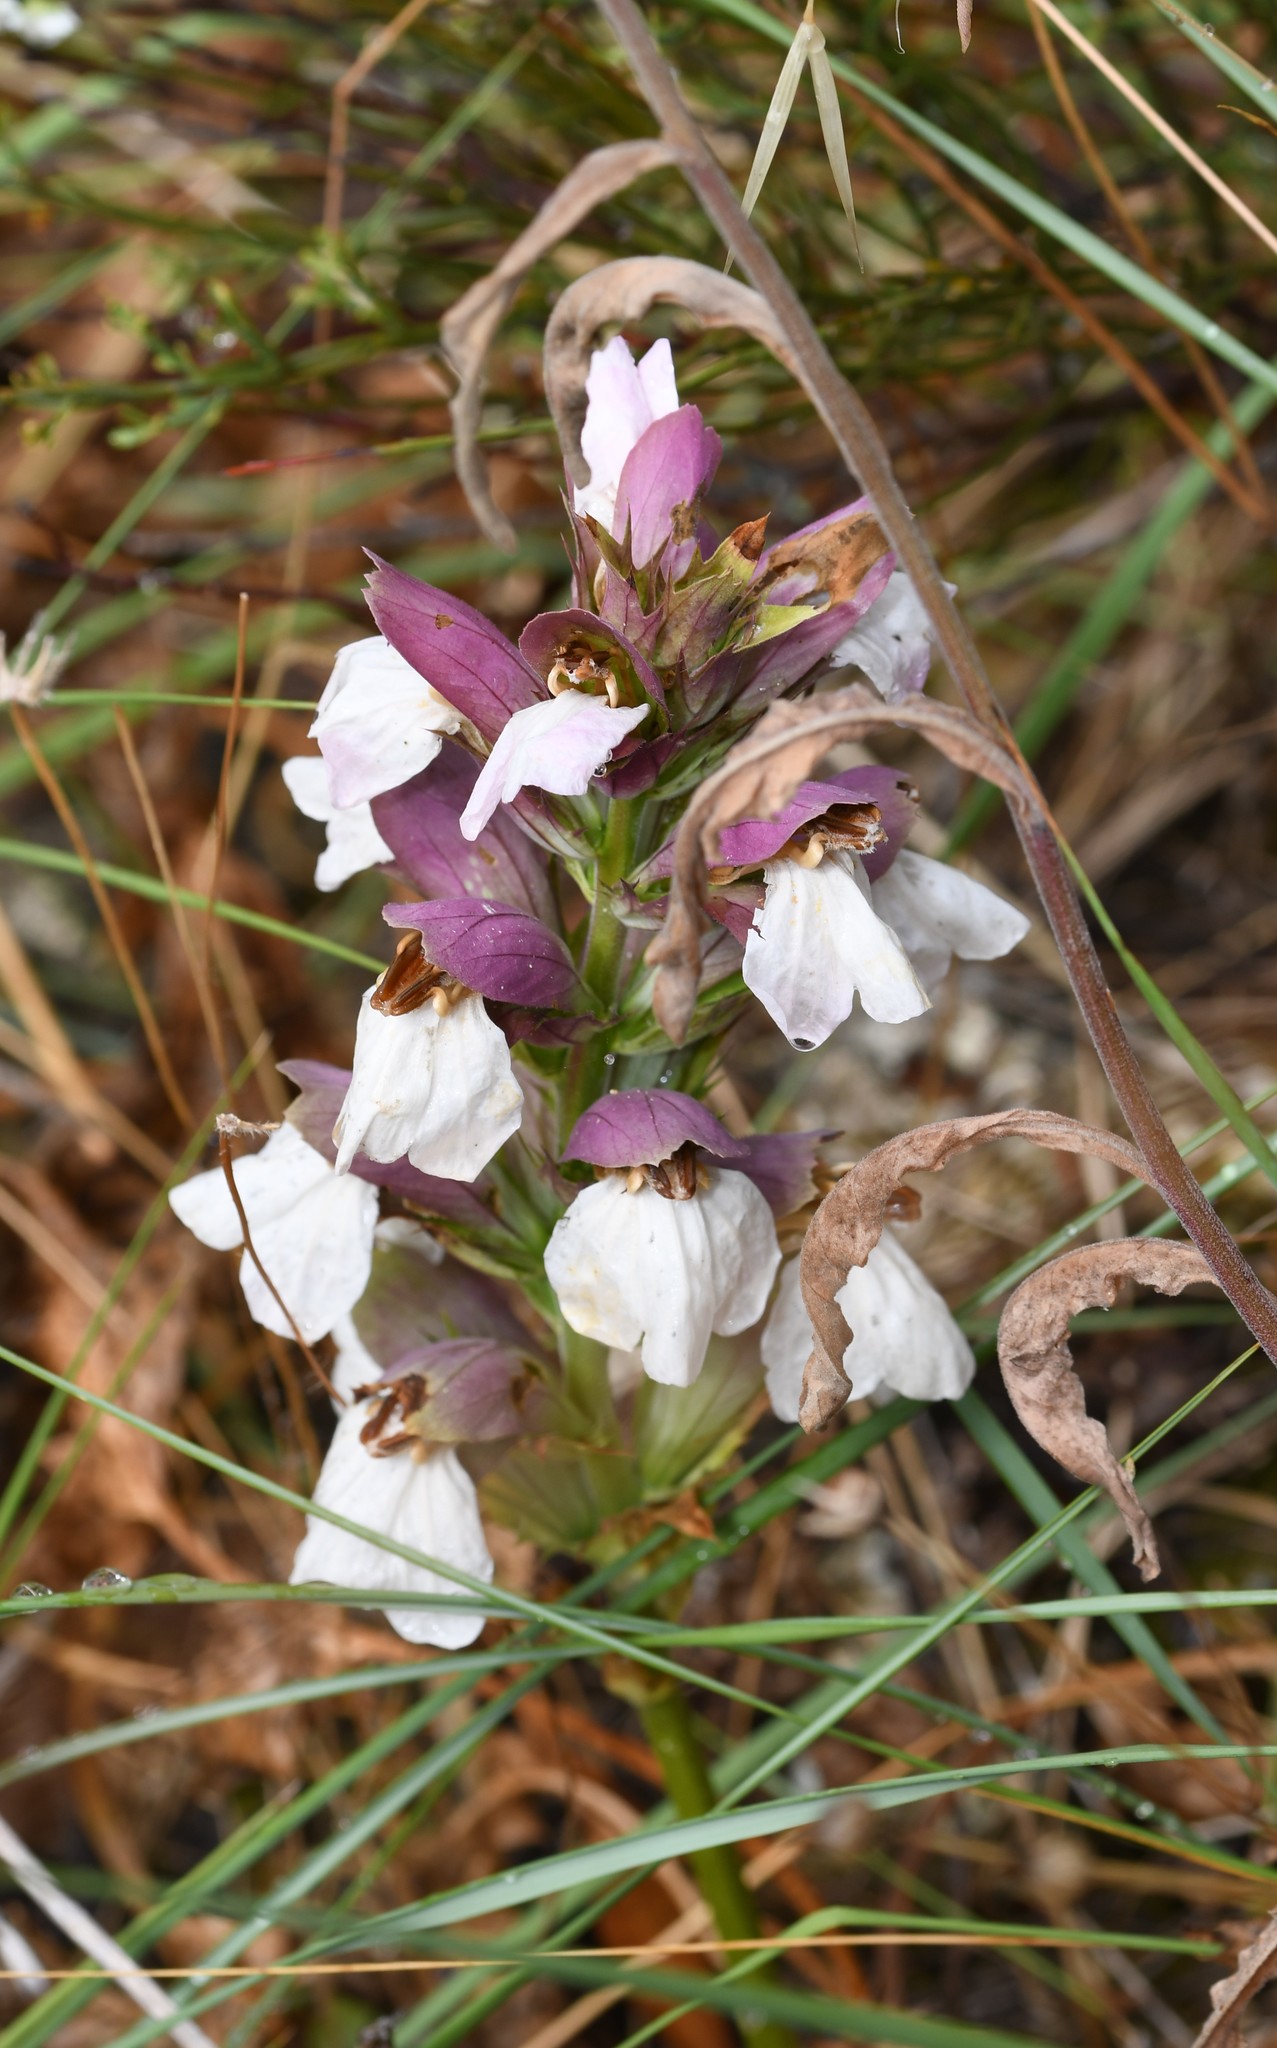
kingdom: Plantae
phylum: Tracheophyta
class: Magnoliopsida
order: Lamiales
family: Acanthaceae
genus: Acanthus
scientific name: Acanthus mollis
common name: Bear's-breech
